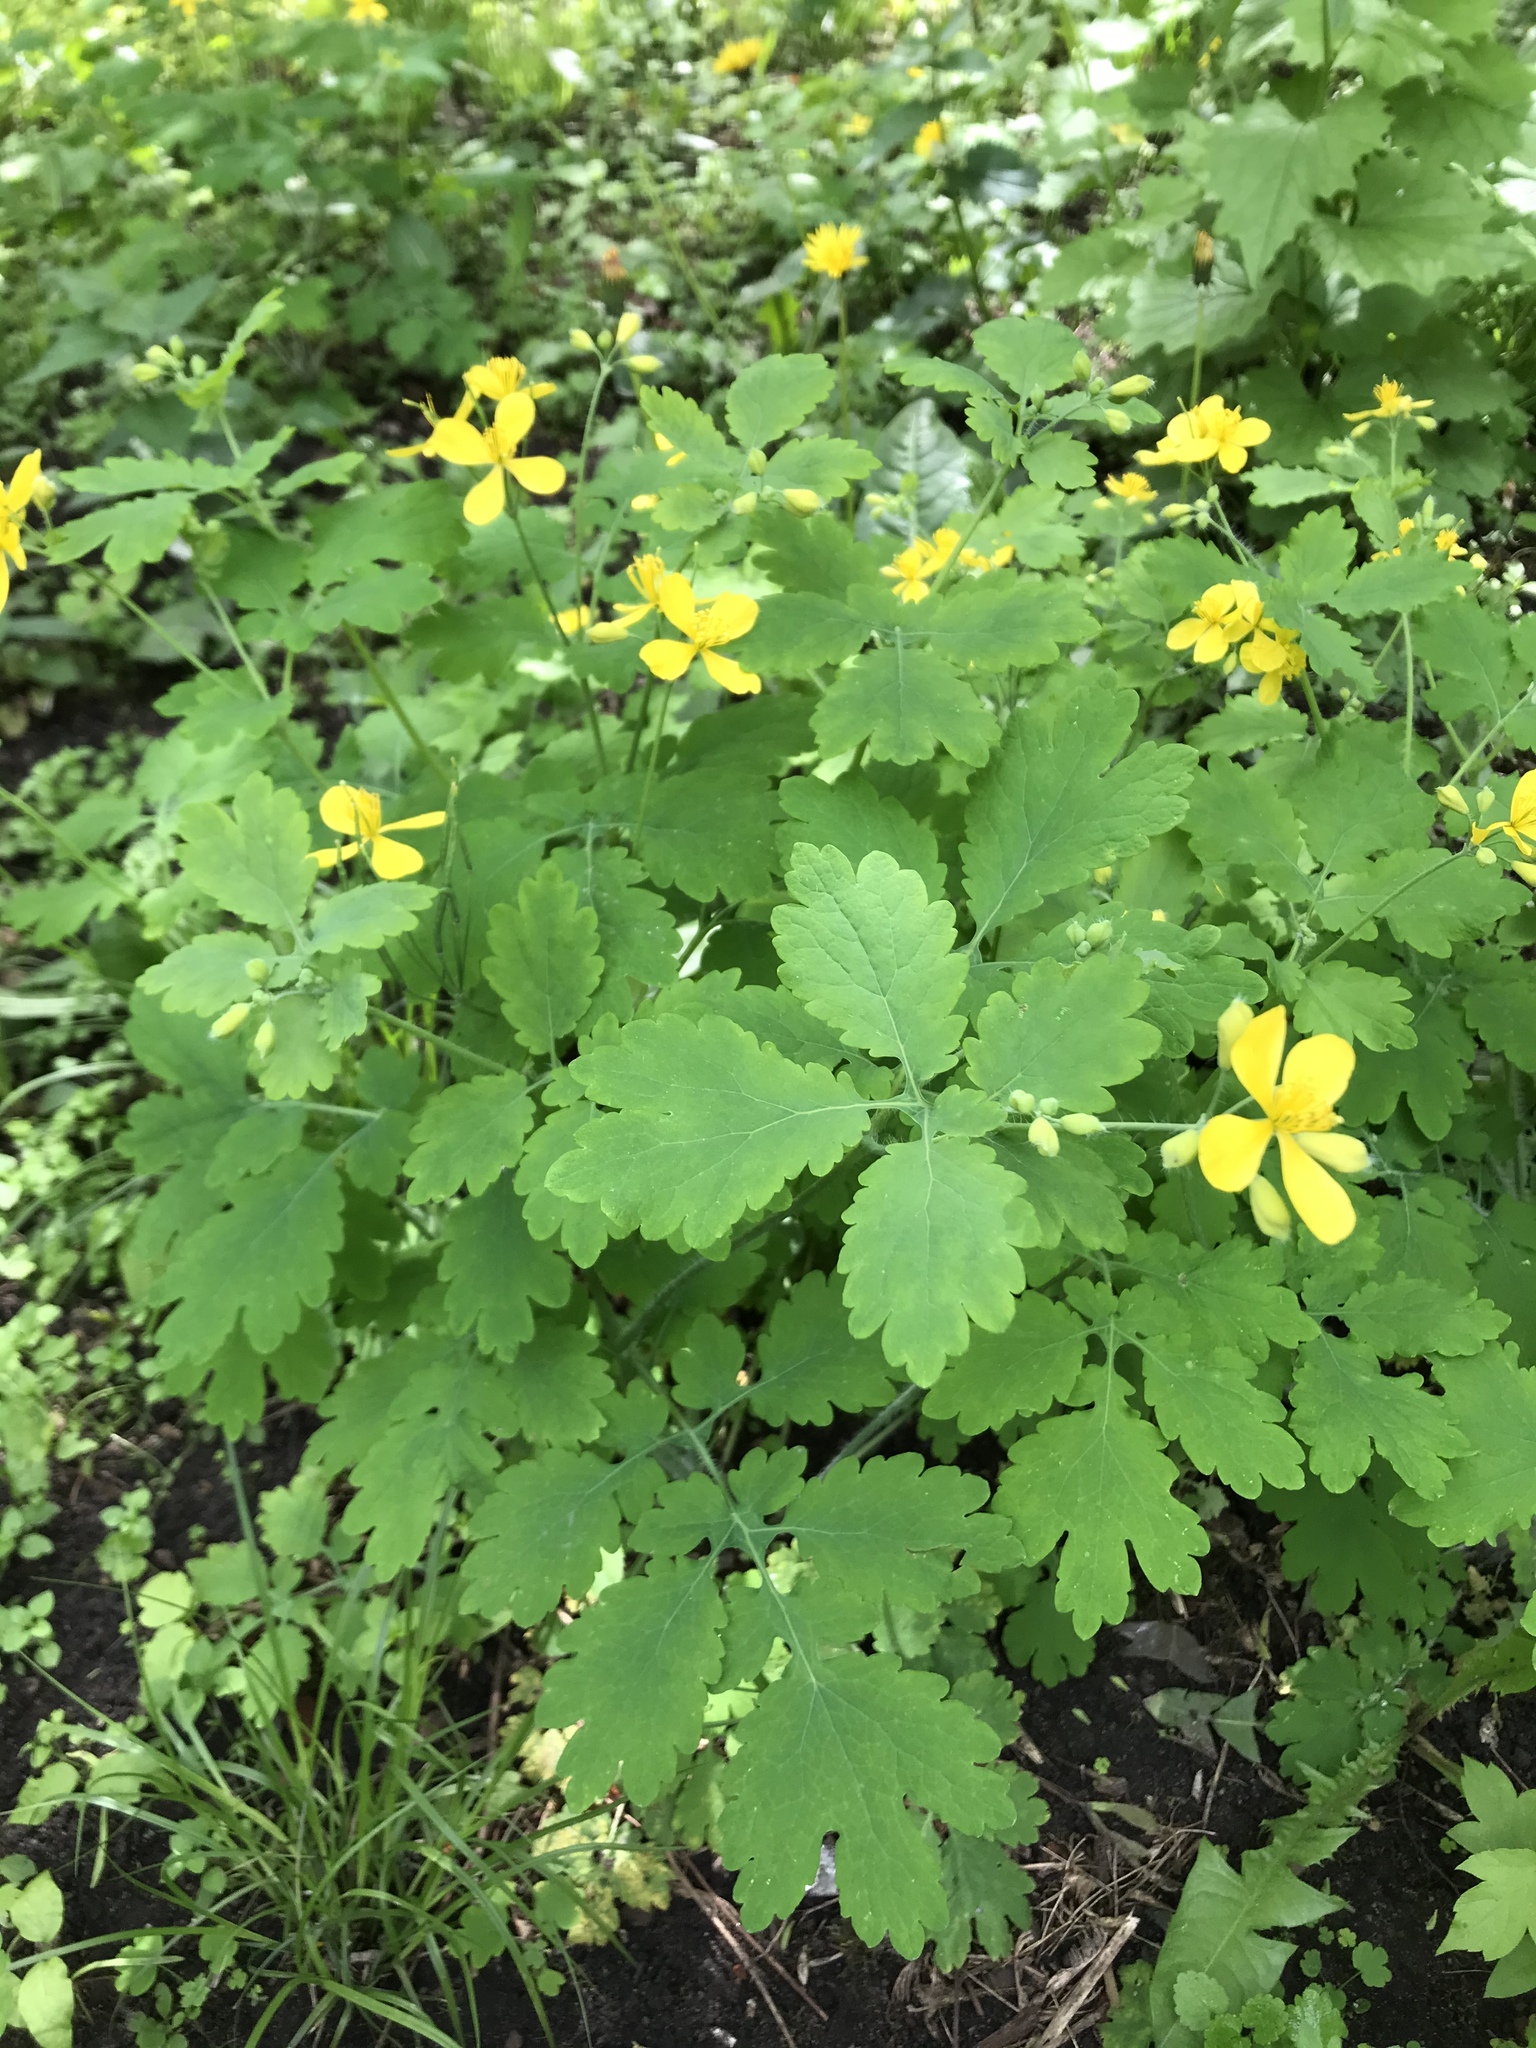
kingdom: Plantae
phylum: Tracheophyta
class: Magnoliopsida
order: Ranunculales
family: Papaveraceae
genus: Chelidonium
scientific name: Chelidonium majus
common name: Greater celandine
